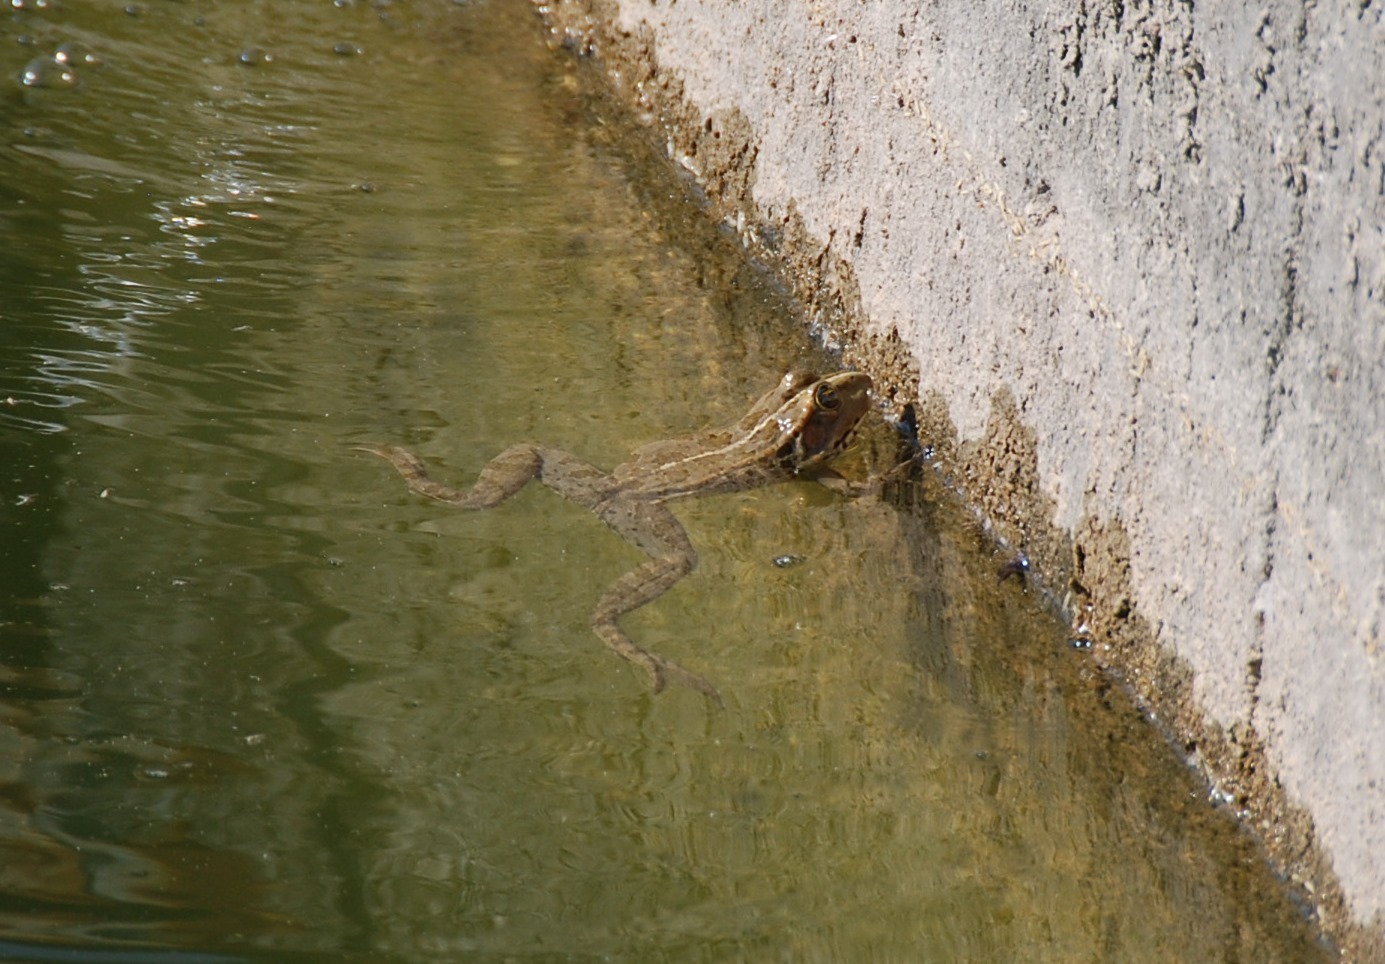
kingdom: Animalia
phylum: Chordata
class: Amphibia
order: Anura
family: Ranidae
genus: Pelophylax
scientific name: Pelophylax
